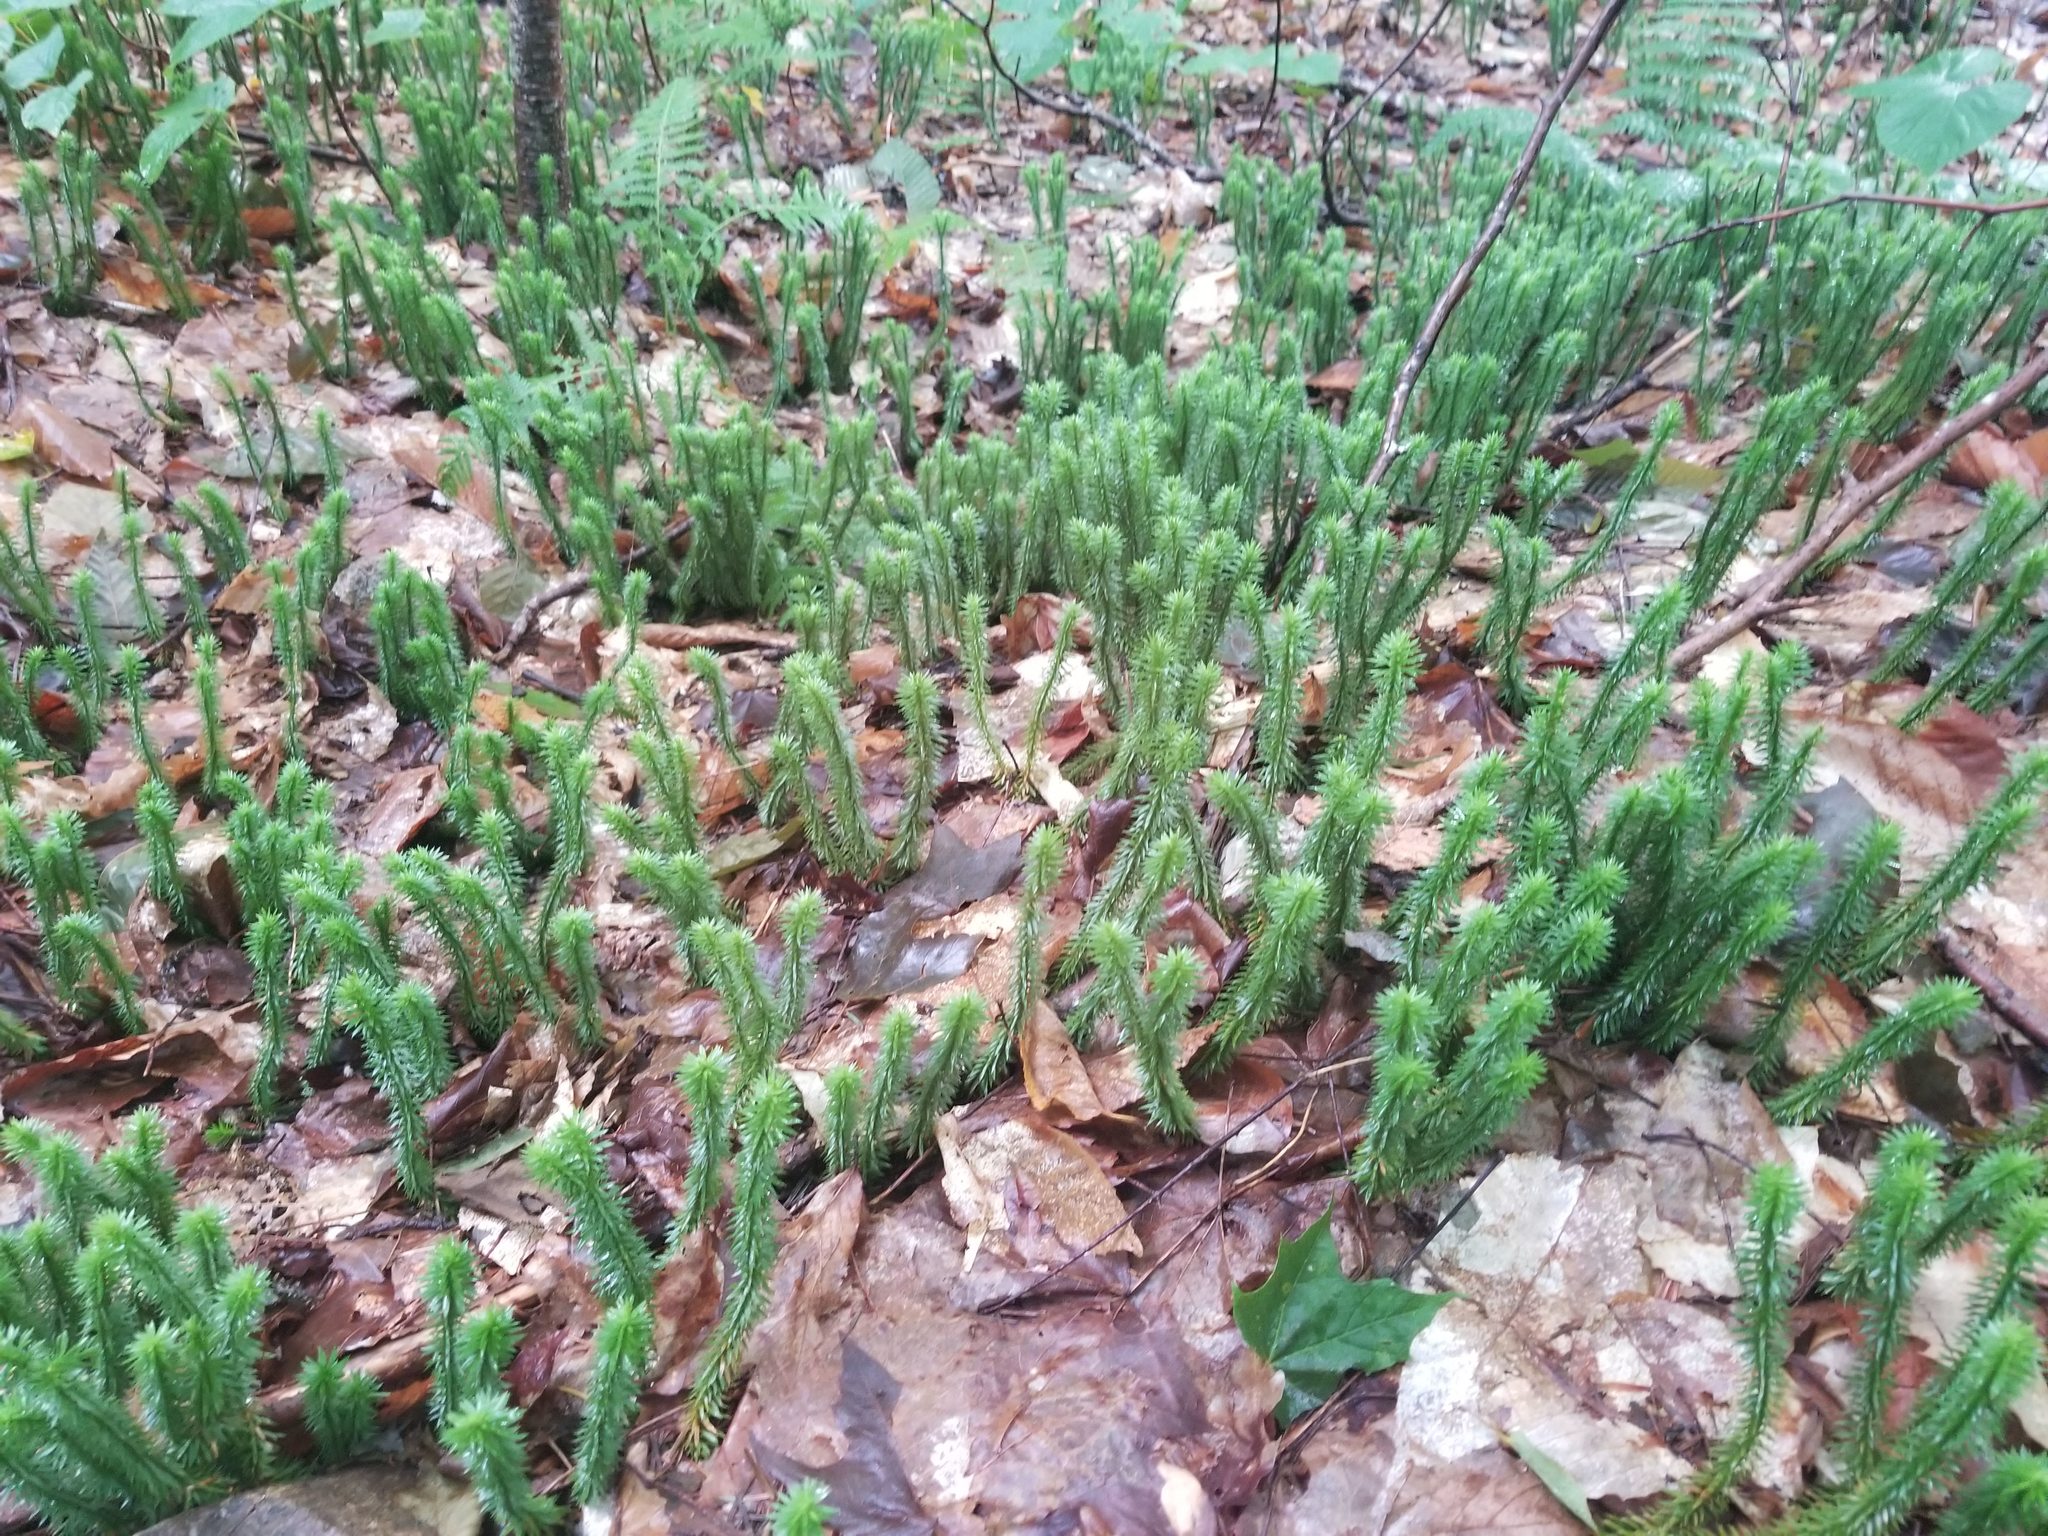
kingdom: Plantae
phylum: Tracheophyta
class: Lycopodiopsida
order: Lycopodiales
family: Lycopodiaceae
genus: Huperzia
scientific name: Huperzia lucidula
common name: Shining clubmoss
